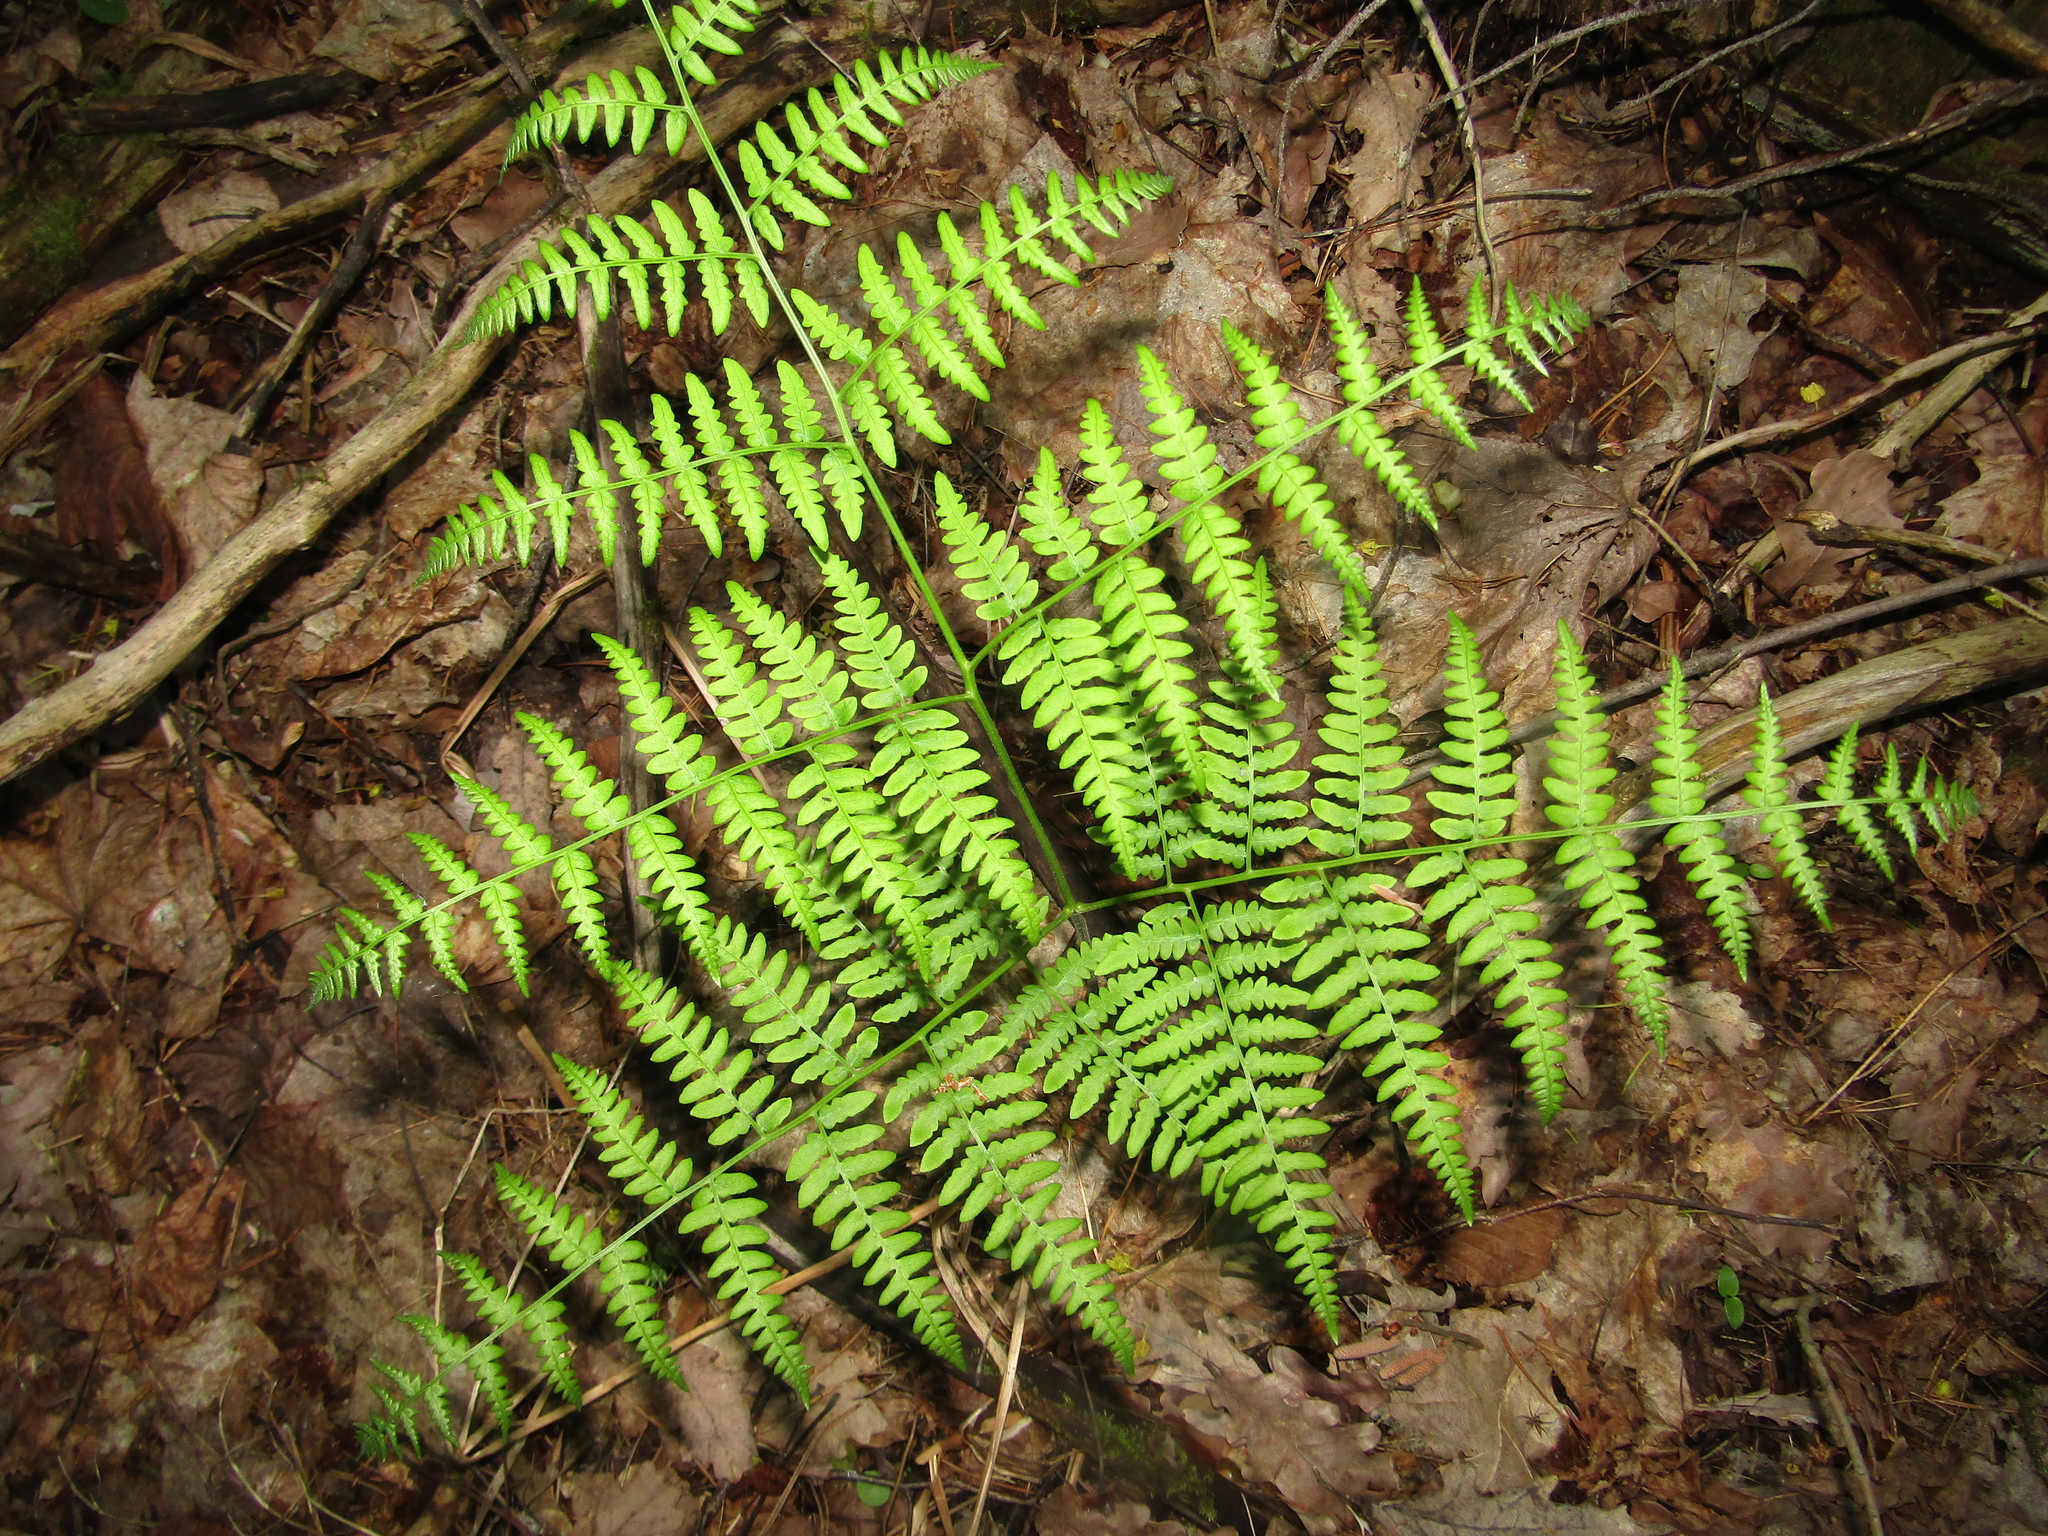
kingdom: Plantae
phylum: Tracheophyta
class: Polypodiopsida
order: Polypodiales
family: Dennstaedtiaceae
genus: Pteridium
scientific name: Pteridium aquilinum
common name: Bracken
